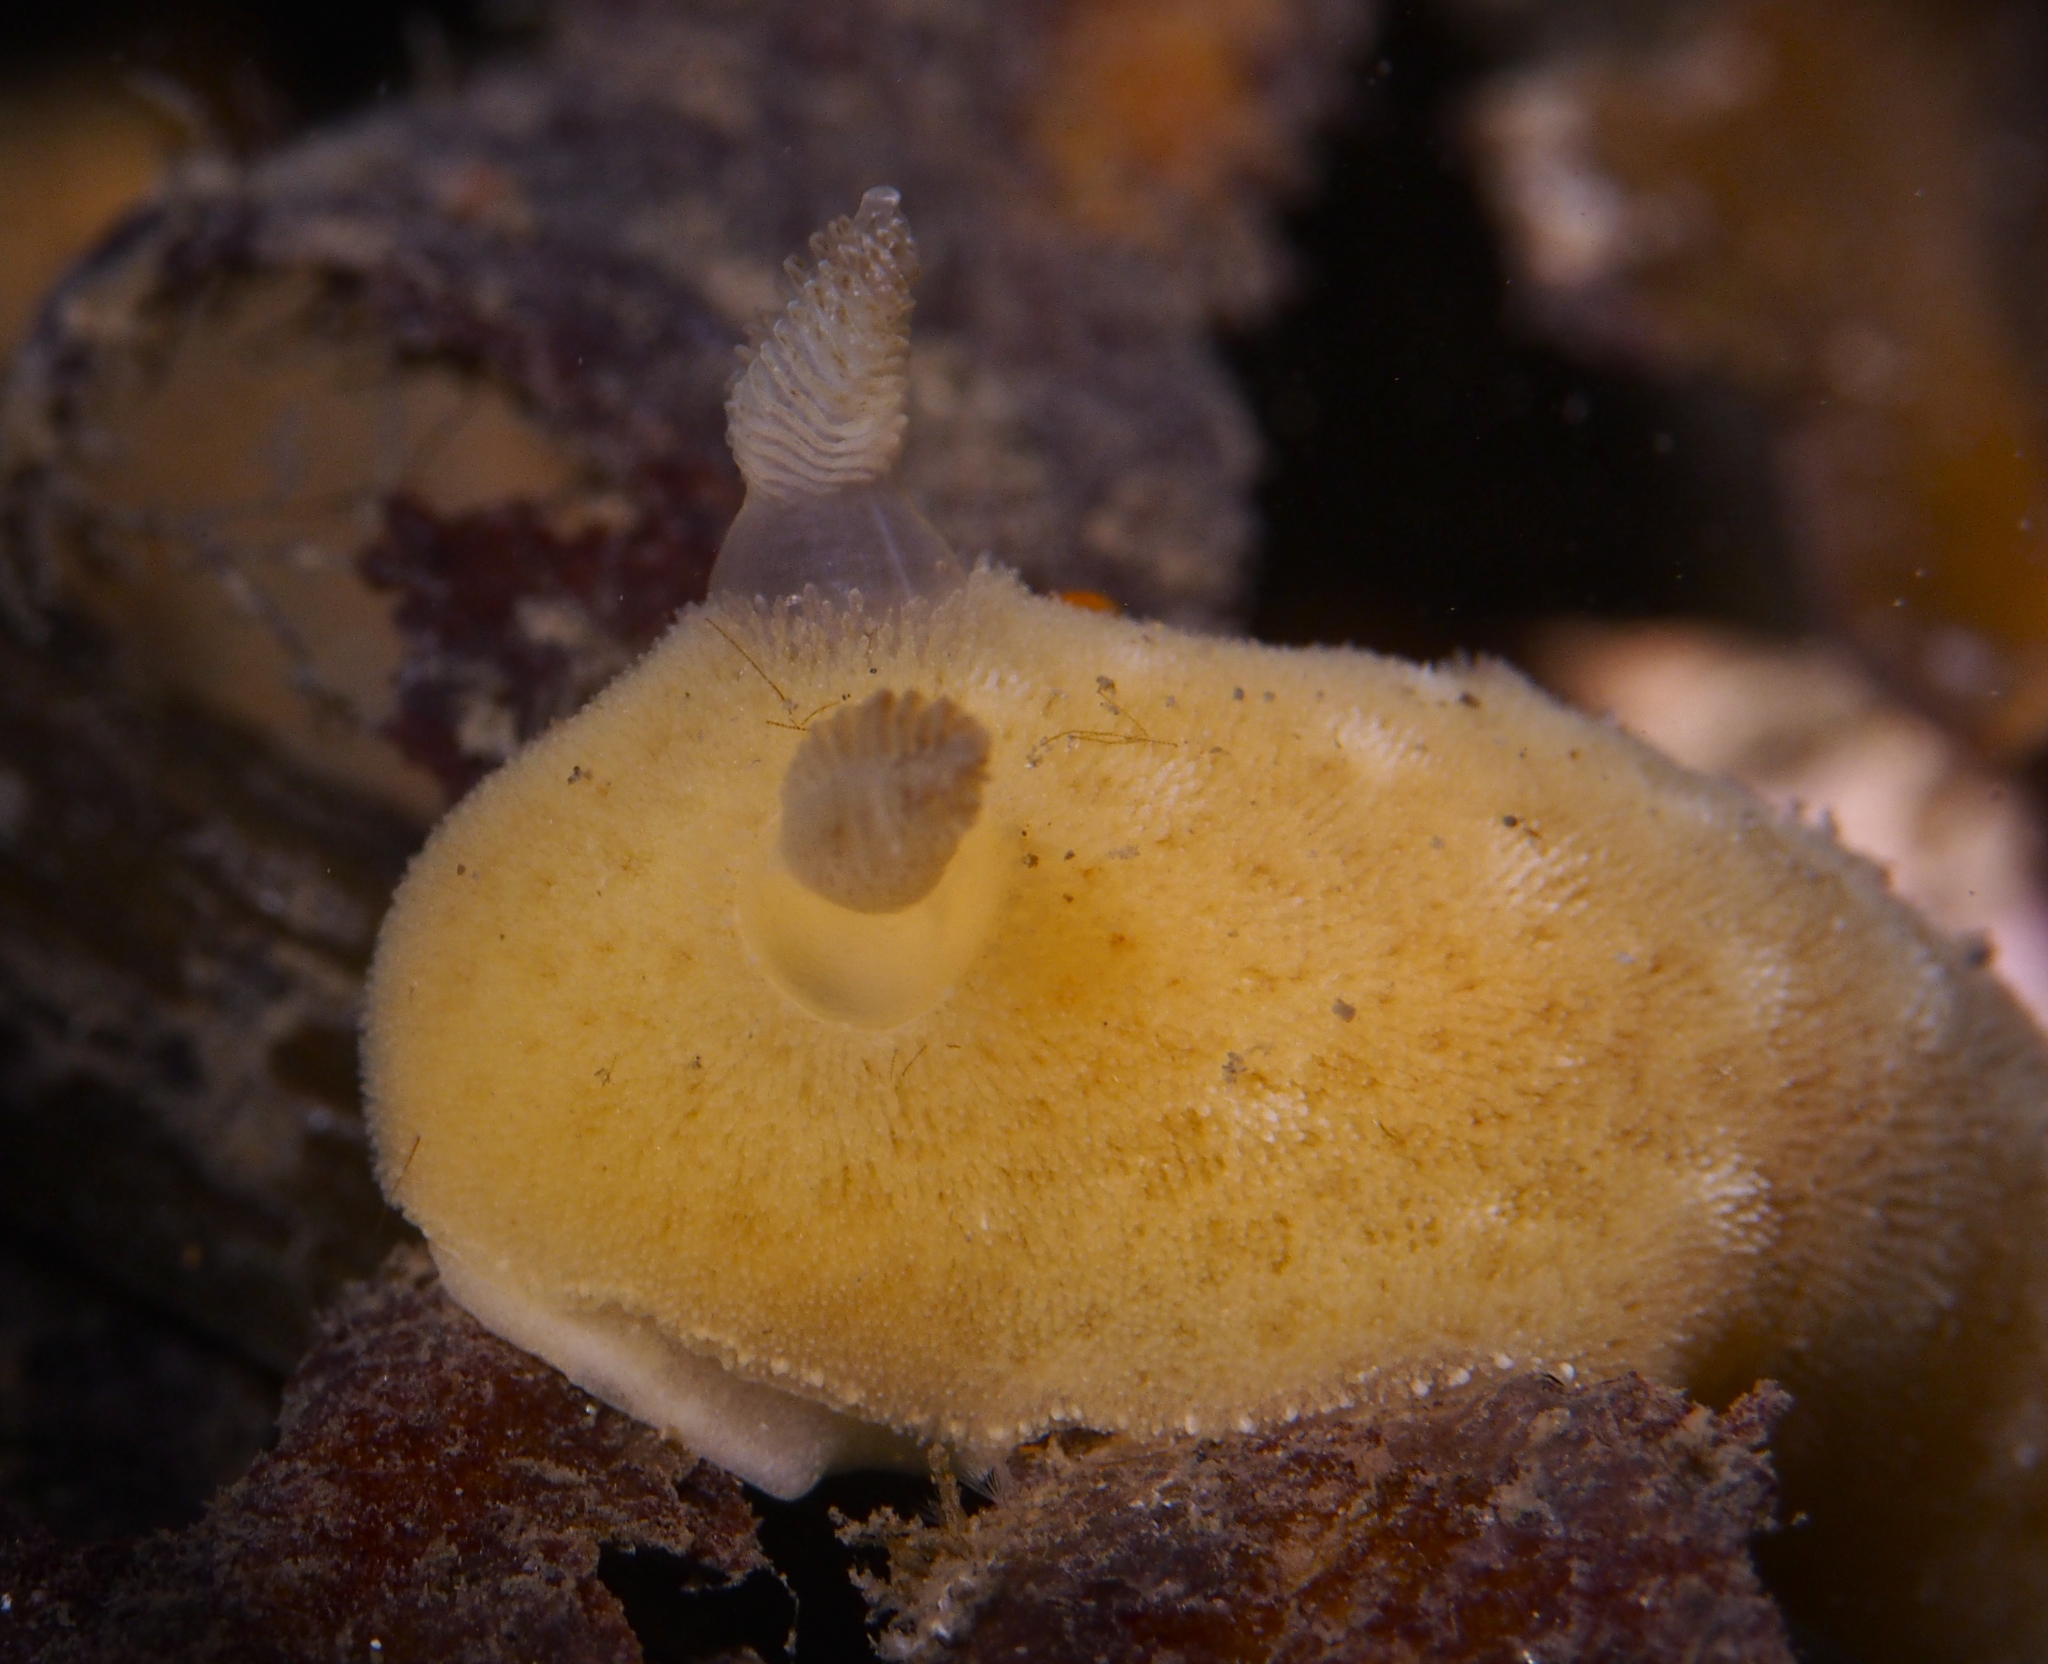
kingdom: Animalia
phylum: Mollusca
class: Gastropoda
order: Nudibranchia
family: Discodorididae
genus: Jorunna
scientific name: Jorunna tomentosa
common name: Grey sea slug
